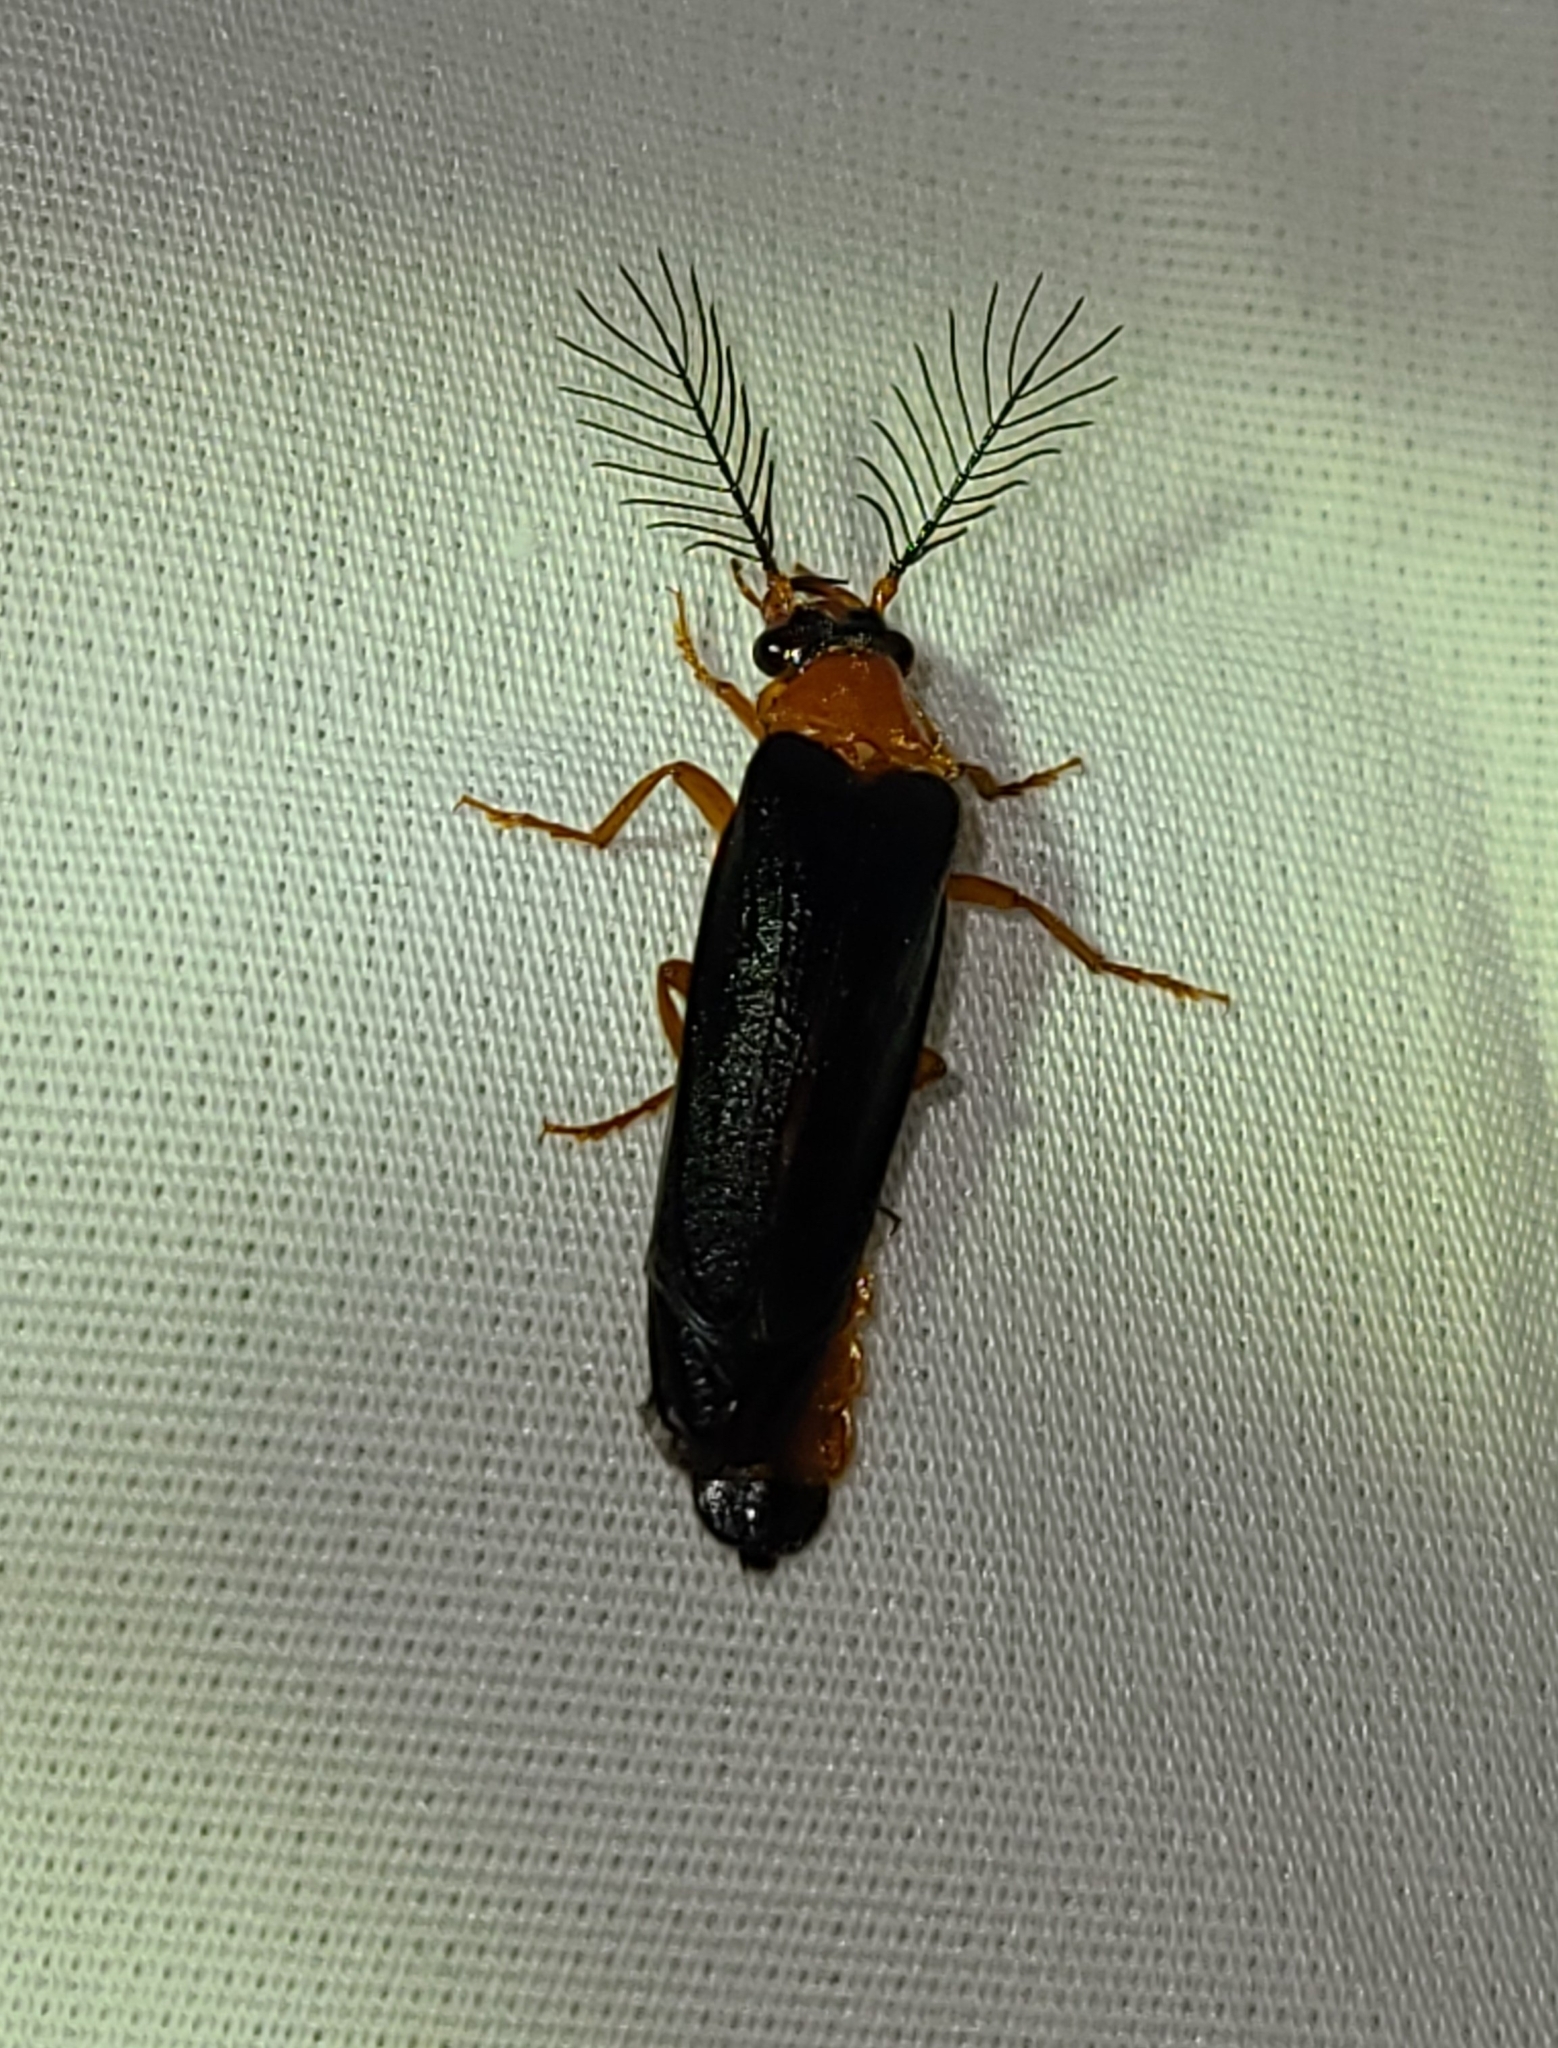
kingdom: Animalia
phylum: Arthropoda
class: Insecta
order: Coleoptera
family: Phengodidae
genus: Zarhipis
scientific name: Zarhipis integripennis
